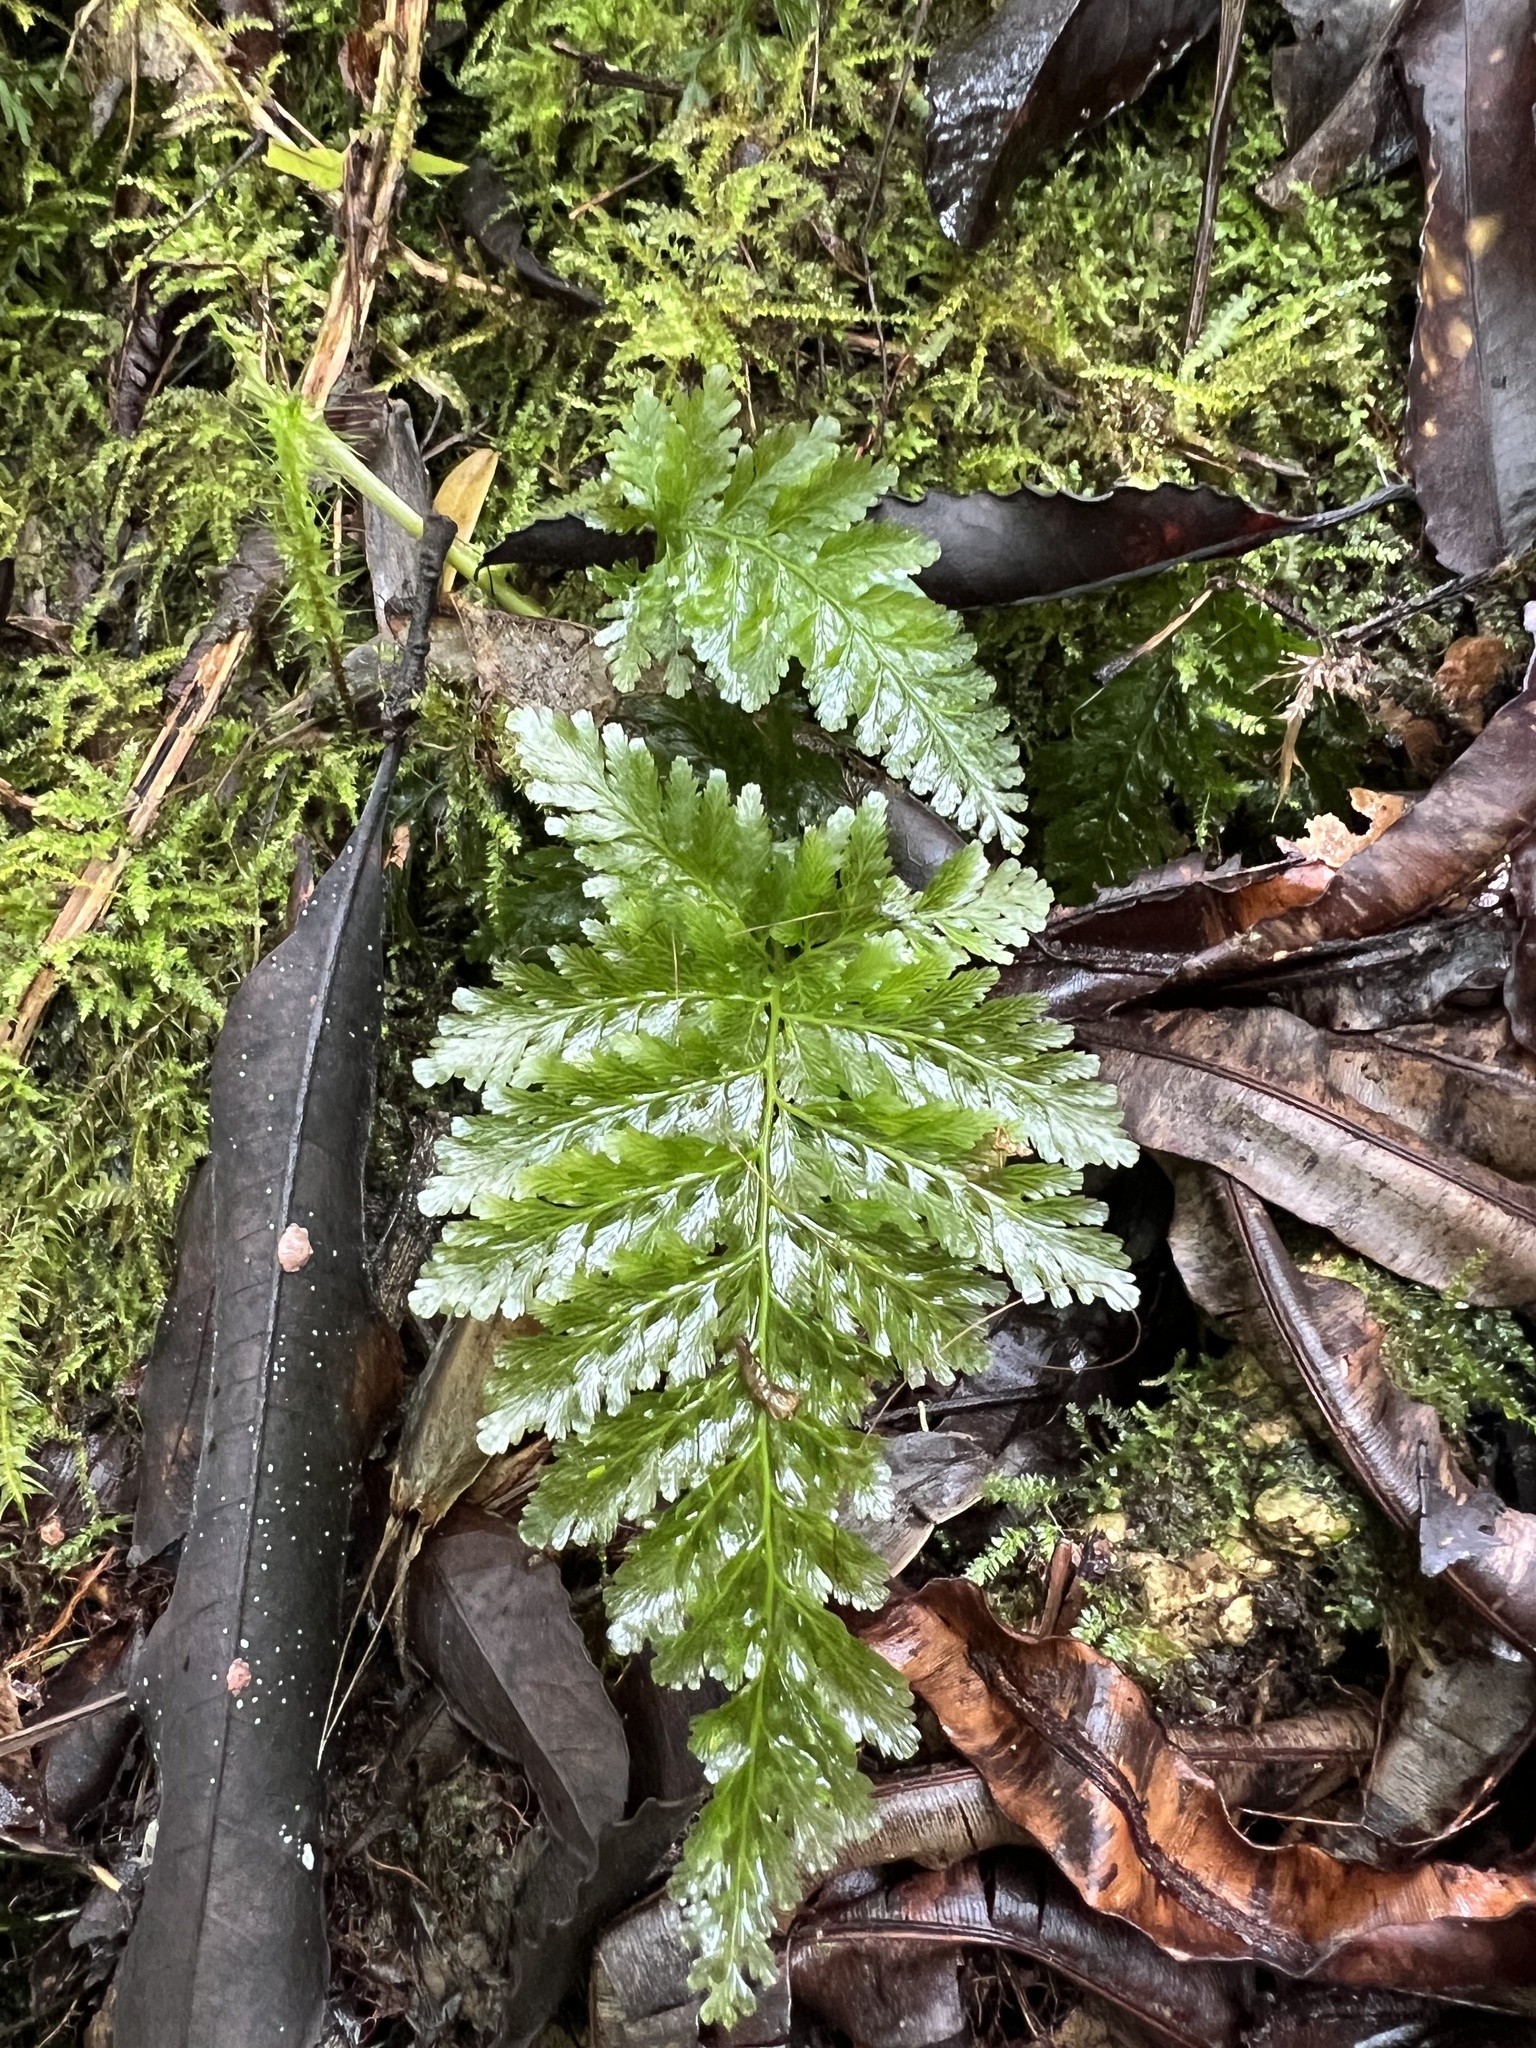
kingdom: Plantae
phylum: Tracheophyta
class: Polypodiopsida
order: Hymenophyllales
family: Hymenophyllaceae
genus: Abrodictyum
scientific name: Abrodictyum dentatum
